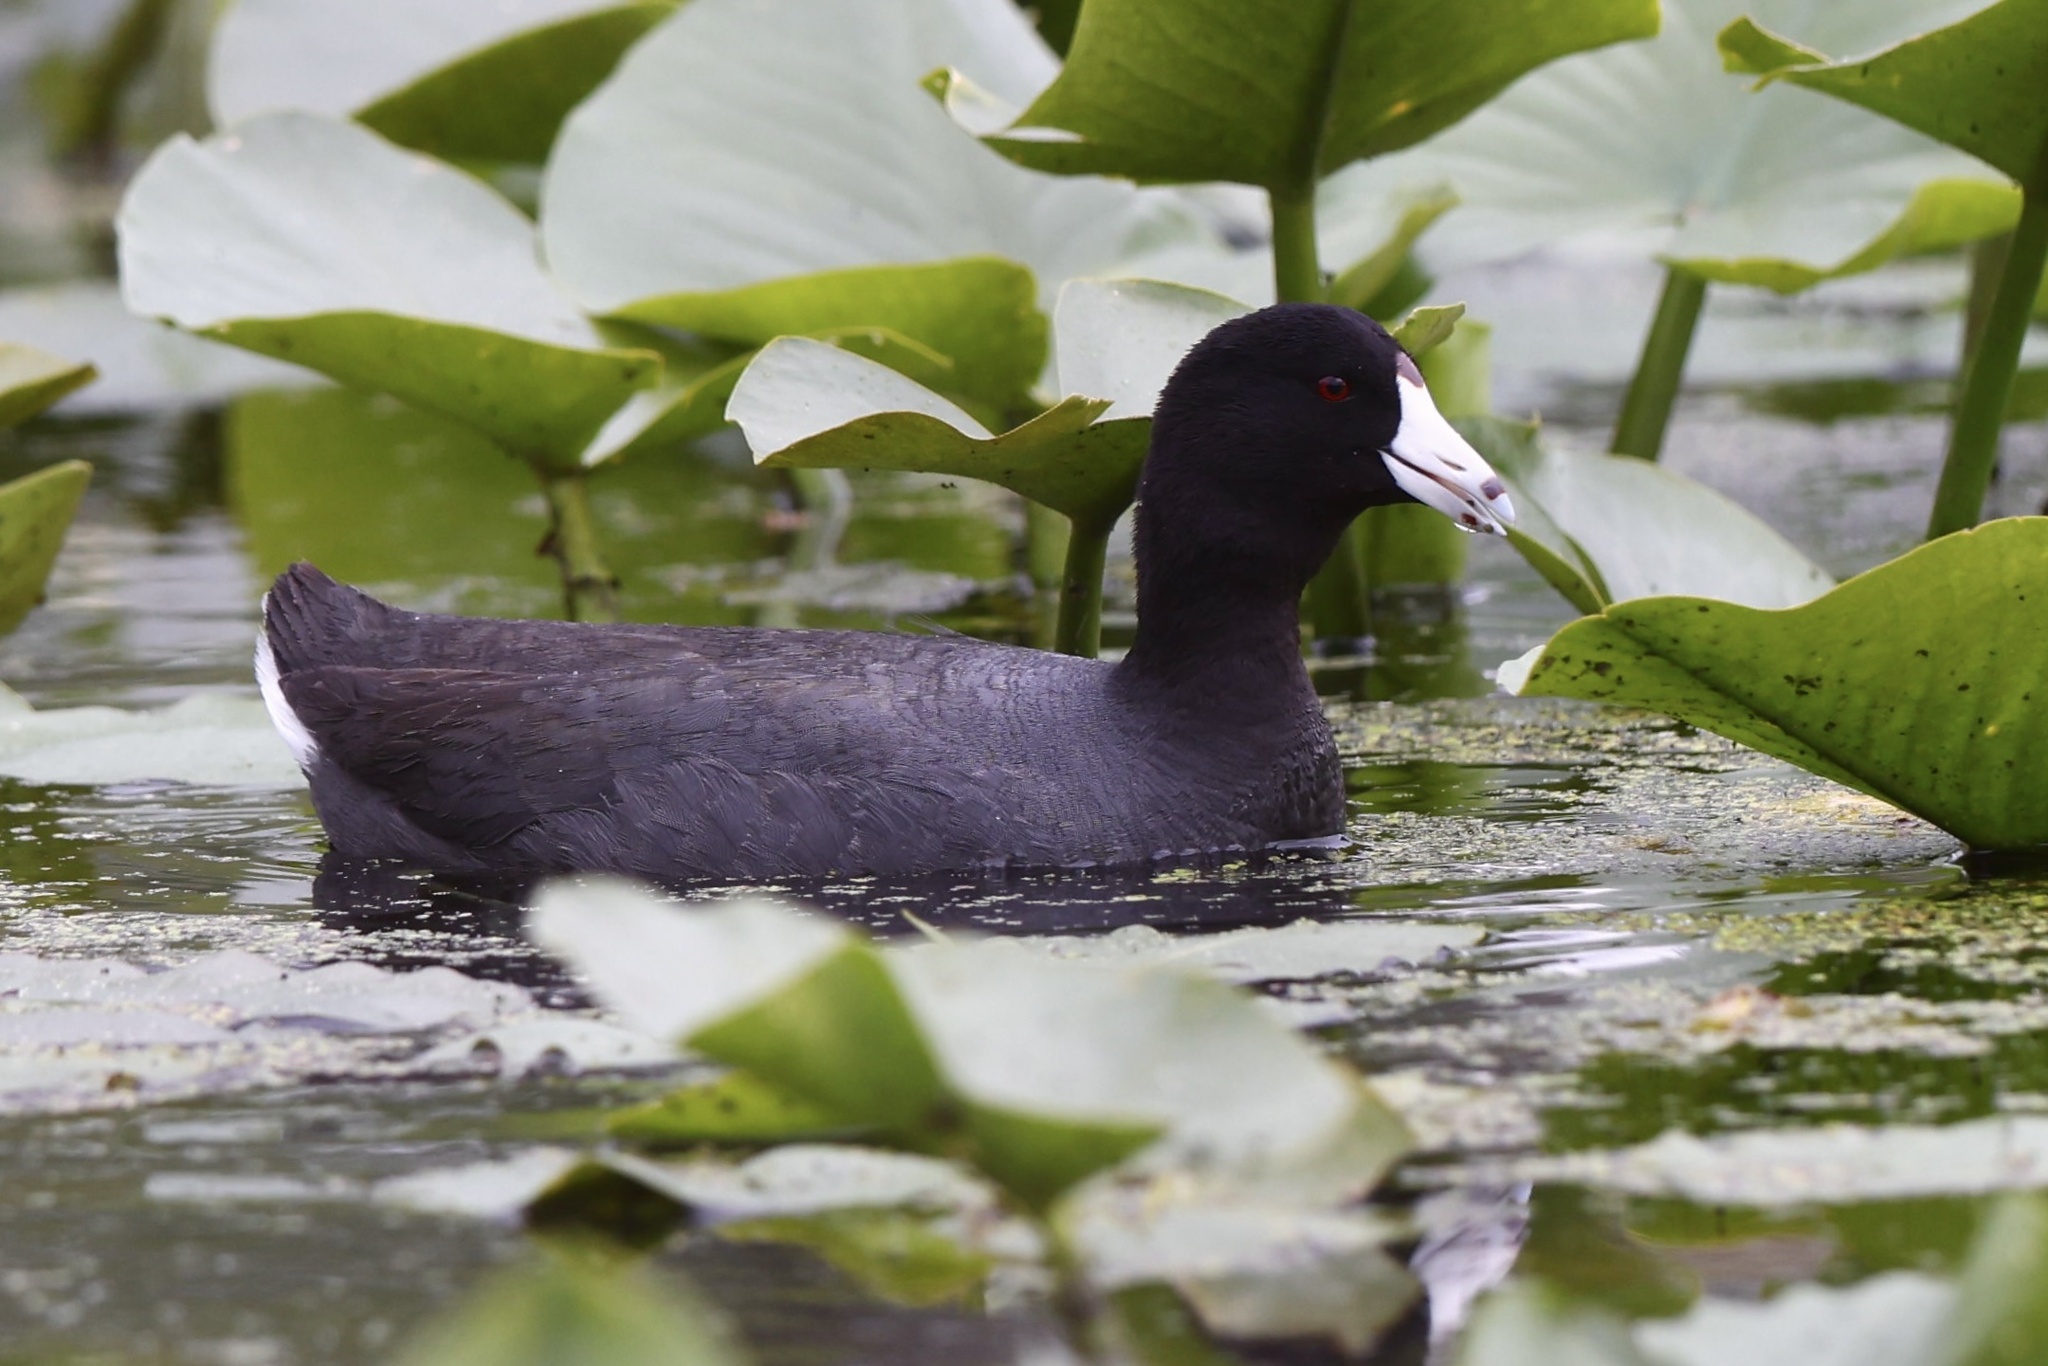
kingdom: Animalia
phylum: Chordata
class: Aves
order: Gruiformes
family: Rallidae
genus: Fulica
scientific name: Fulica americana
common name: American coot
